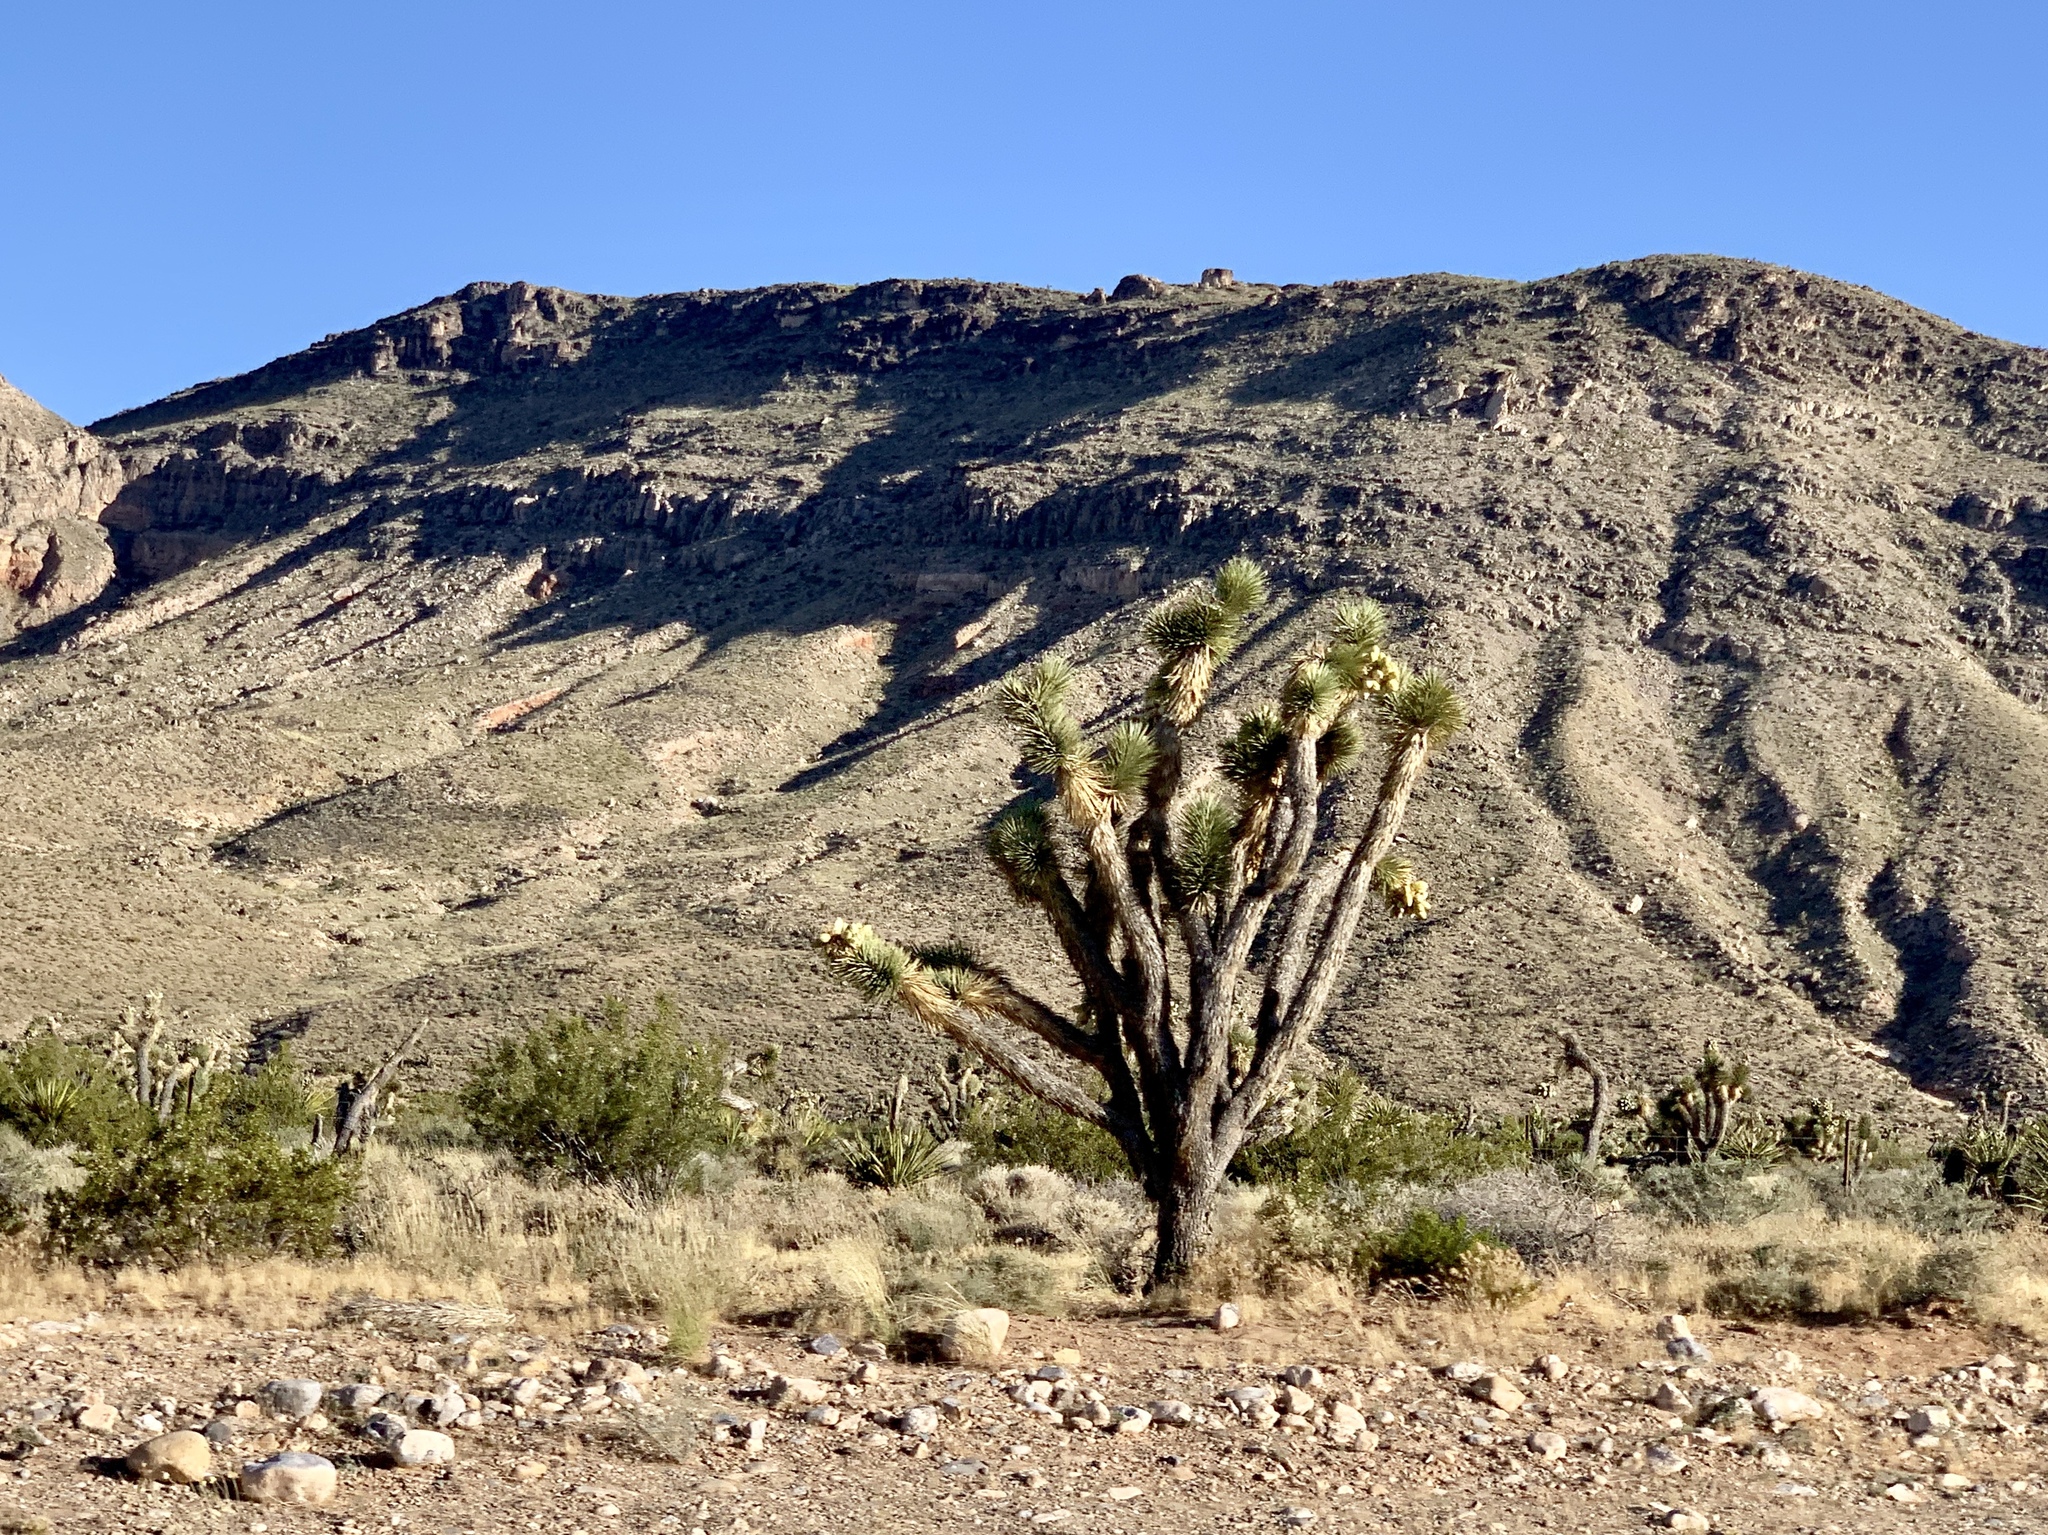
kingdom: Plantae
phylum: Tracheophyta
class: Liliopsida
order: Asparagales
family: Asparagaceae
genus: Yucca
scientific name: Yucca brevifolia
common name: Joshua tree
